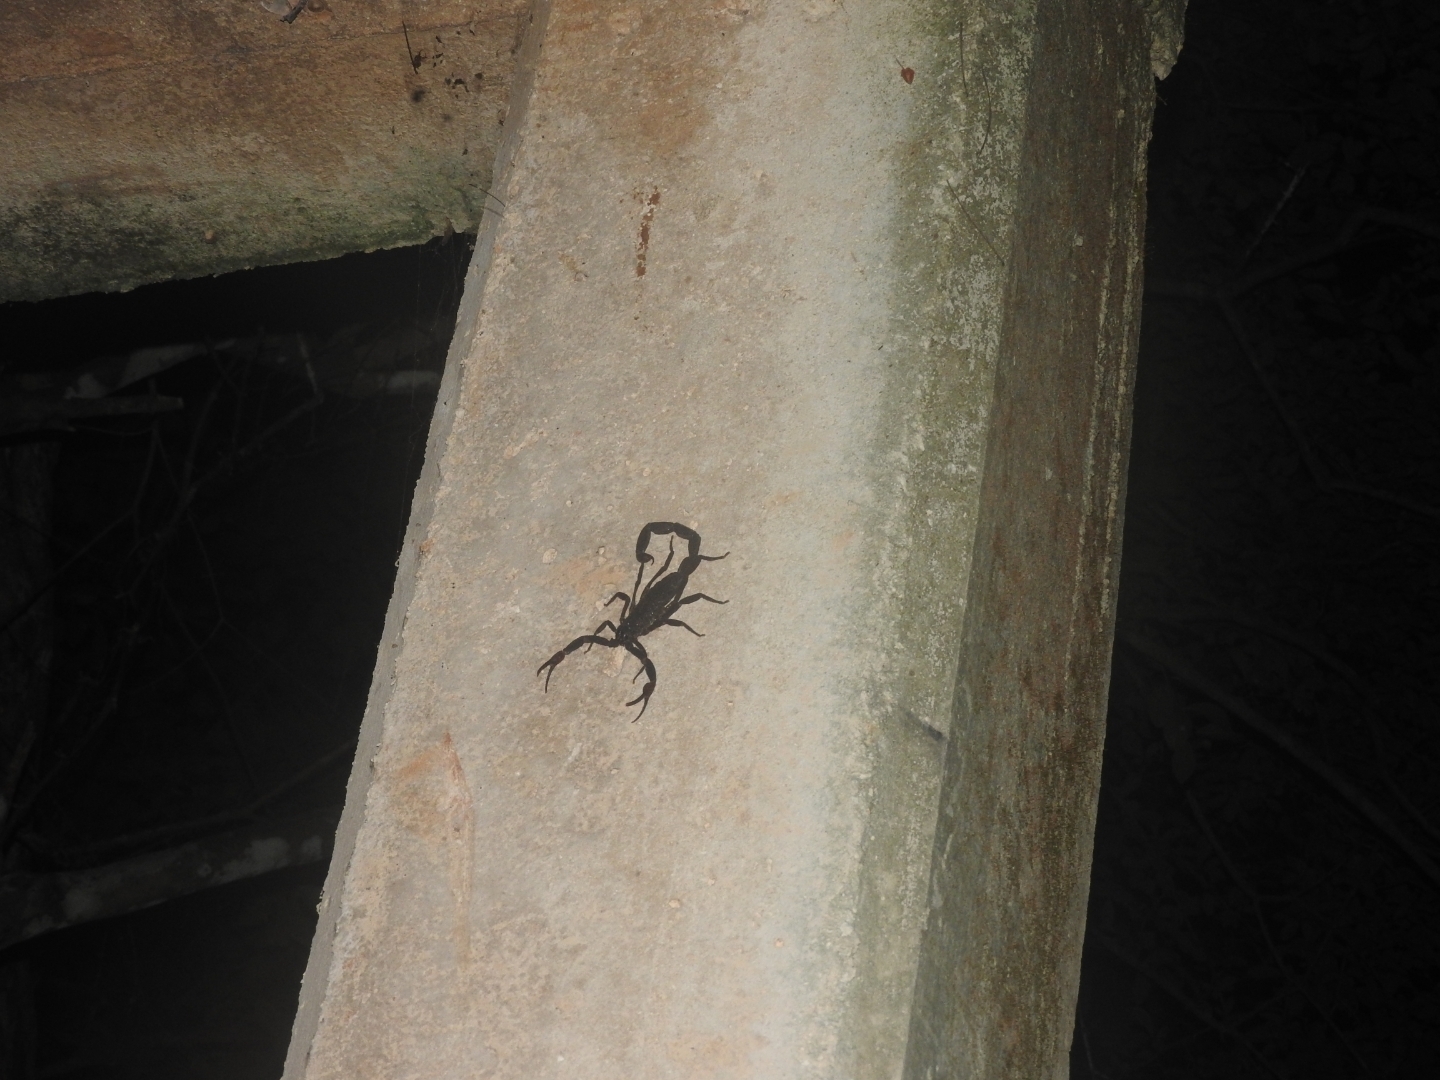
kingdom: Animalia
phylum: Arthropoda
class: Arachnida
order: Scorpiones
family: Buthidae
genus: Centruroides
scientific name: Centruroides gracilis
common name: Scorpions
